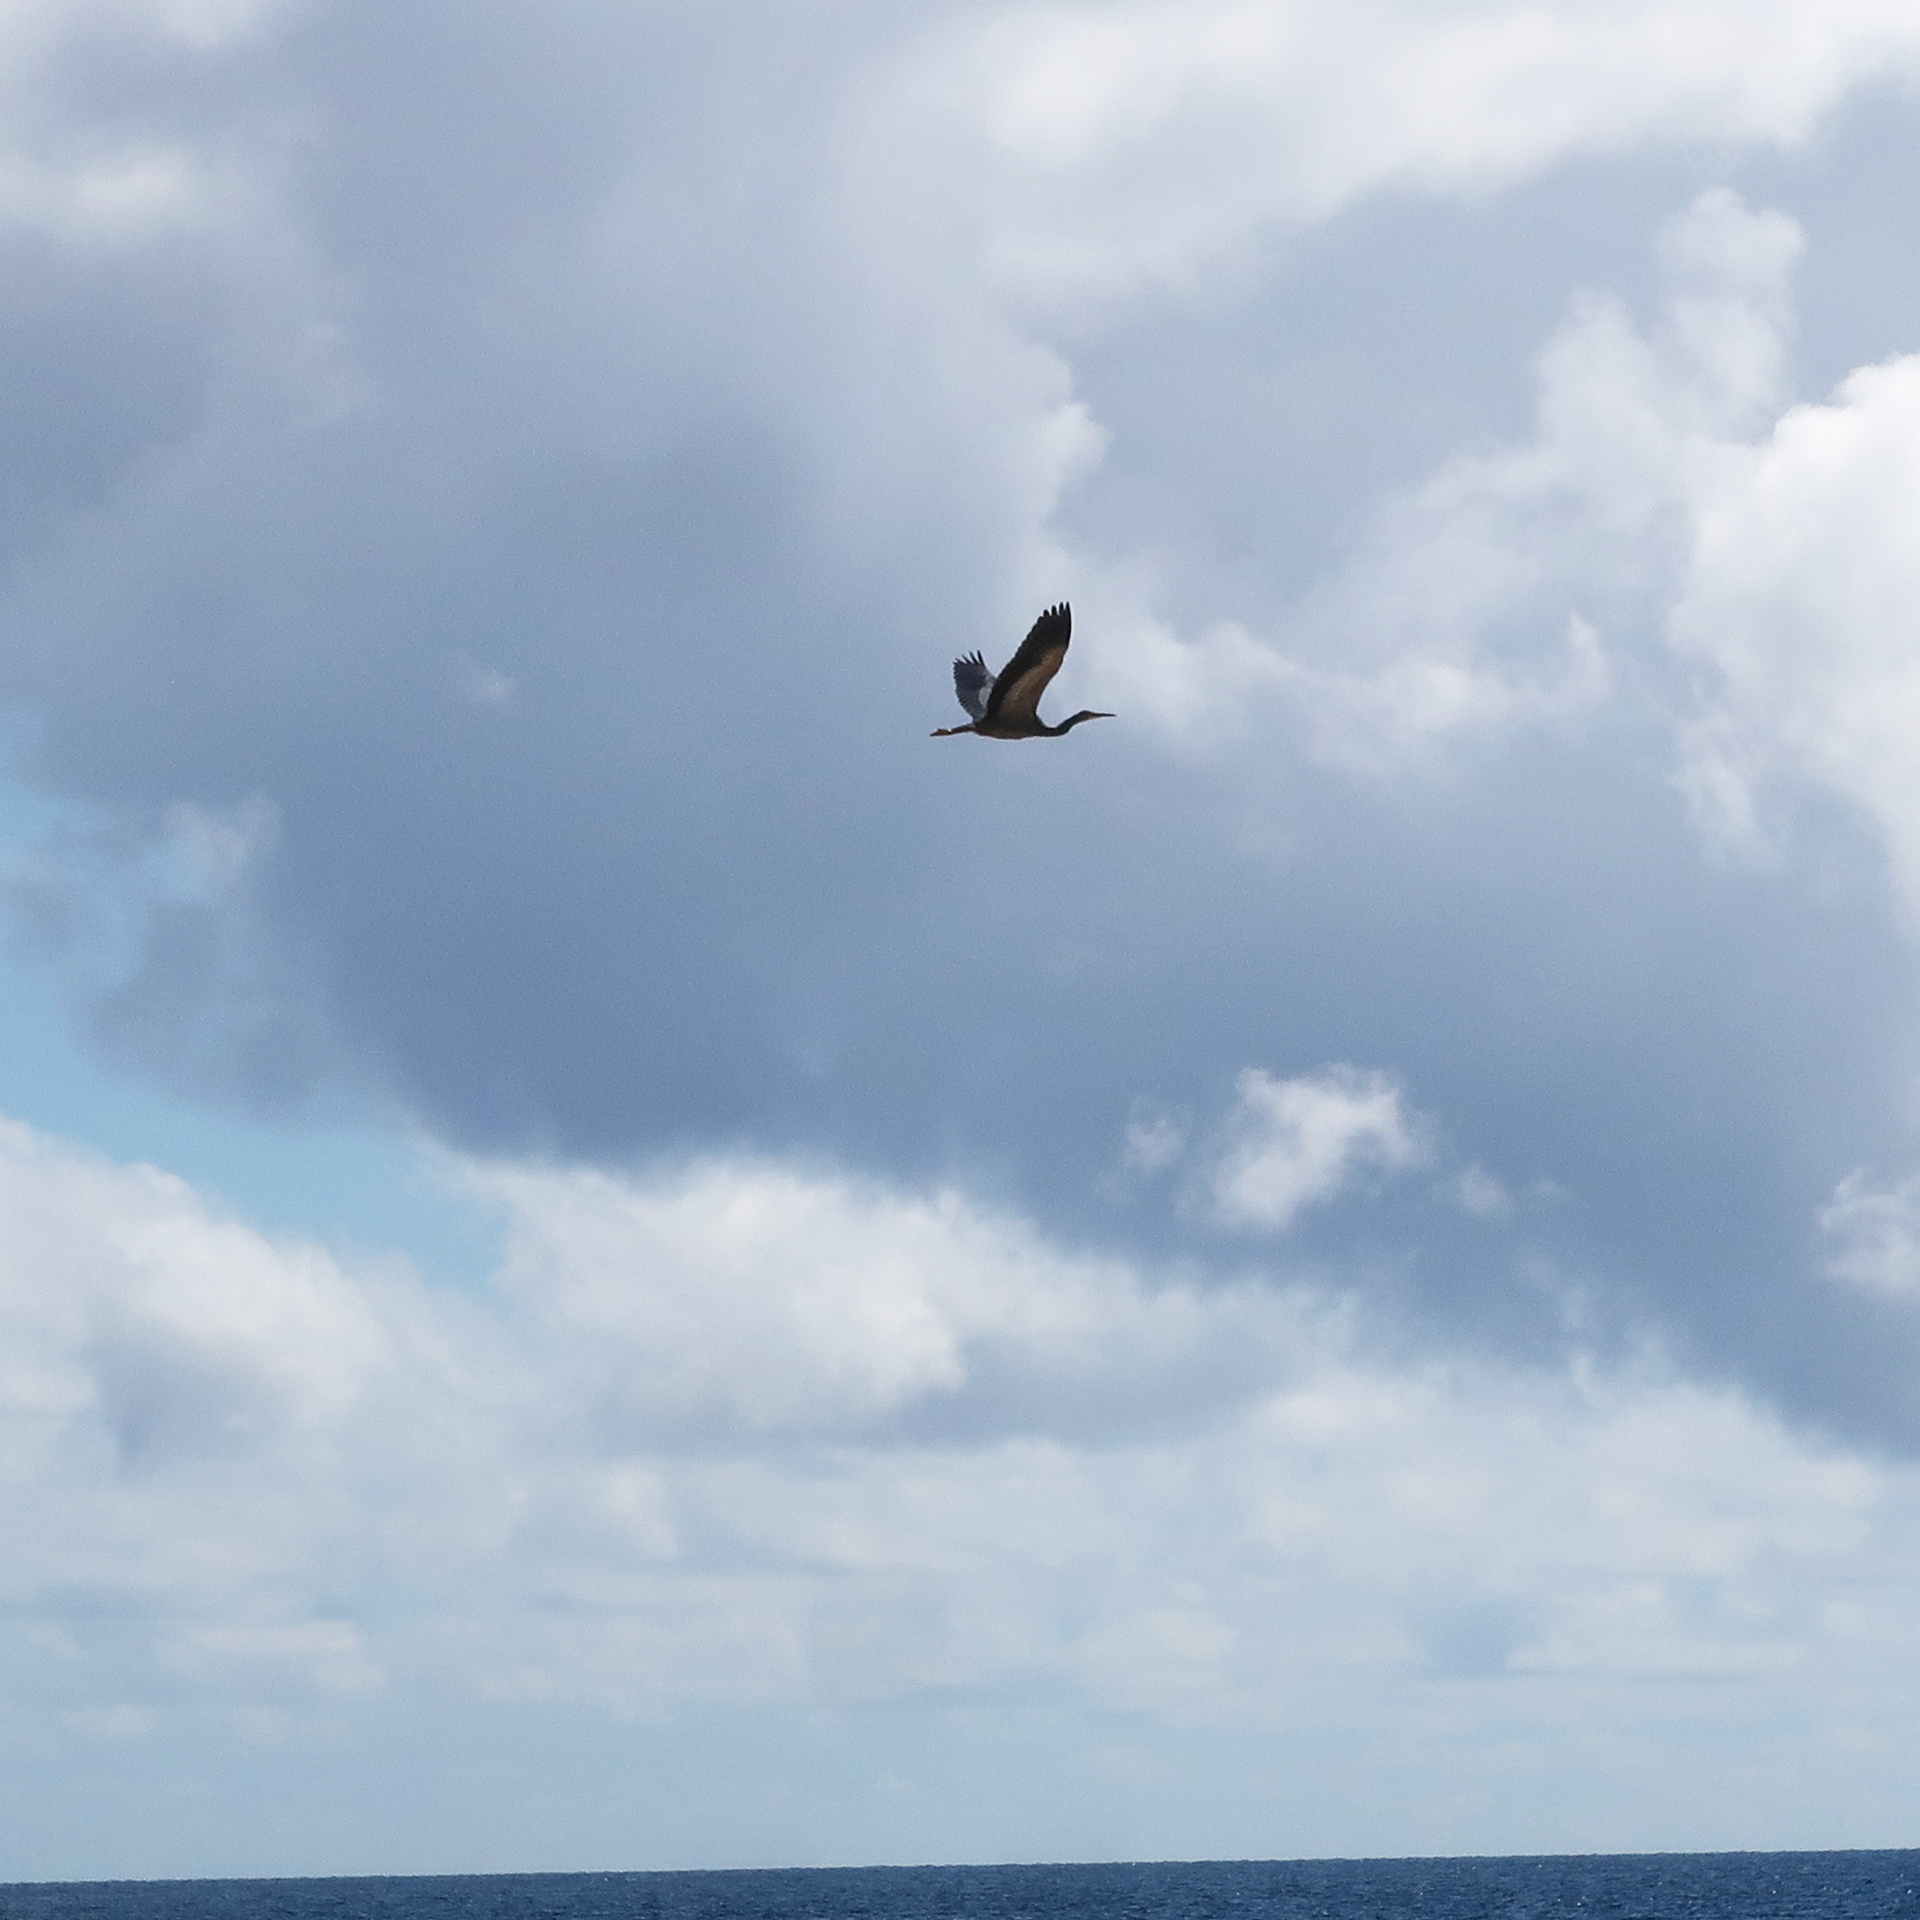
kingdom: Animalia
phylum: Chordata
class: Aves
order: Pelecaniformes
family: Ardeidae
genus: Egretta
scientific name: Egretta novaehollandiae
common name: White-faced heron
